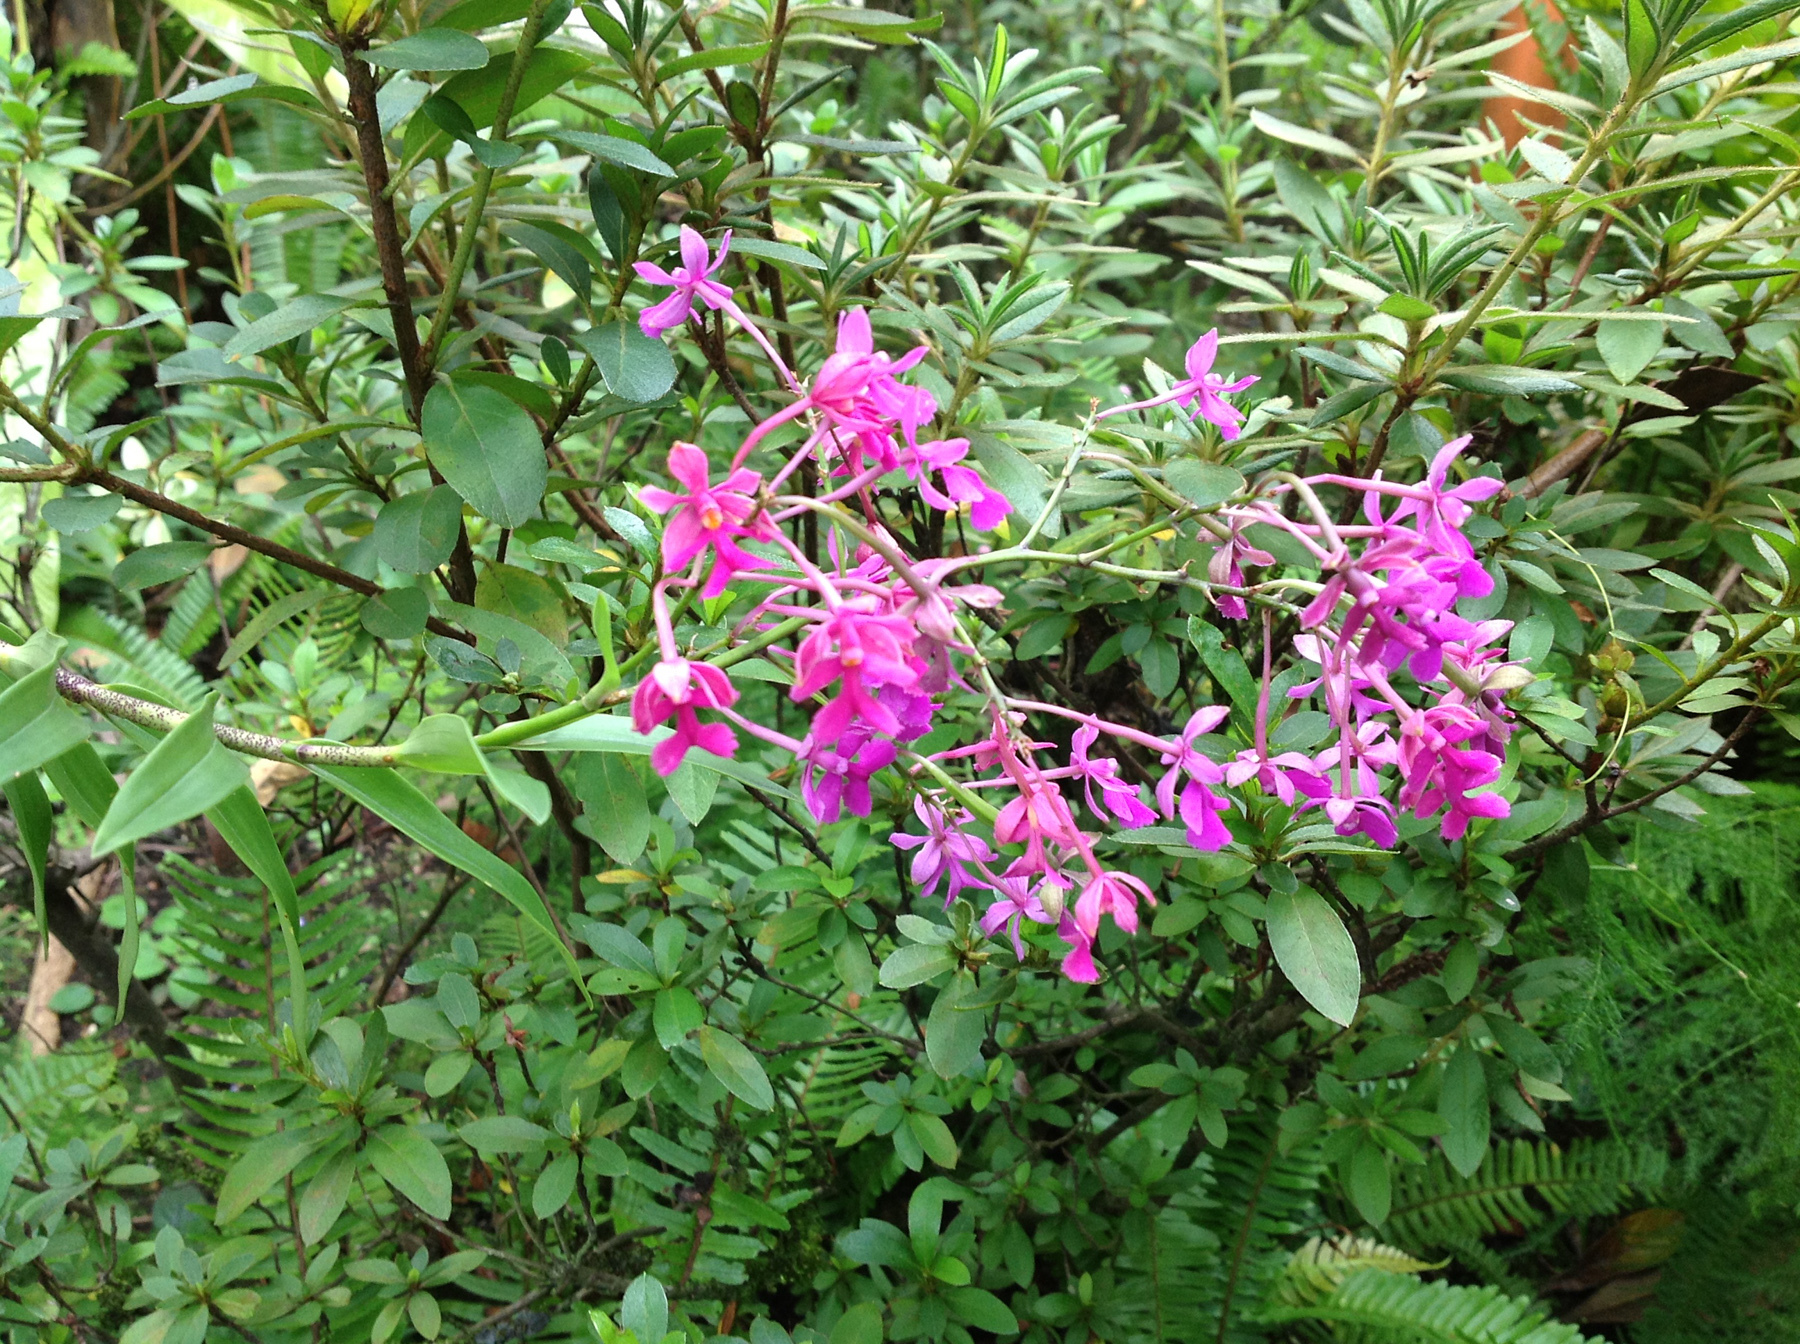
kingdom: Plantae
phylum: Tracheophyta
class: Liliopsida
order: Asparagales
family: Orchidaceae
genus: Epidendrum
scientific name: Epidendrum myrianthum
